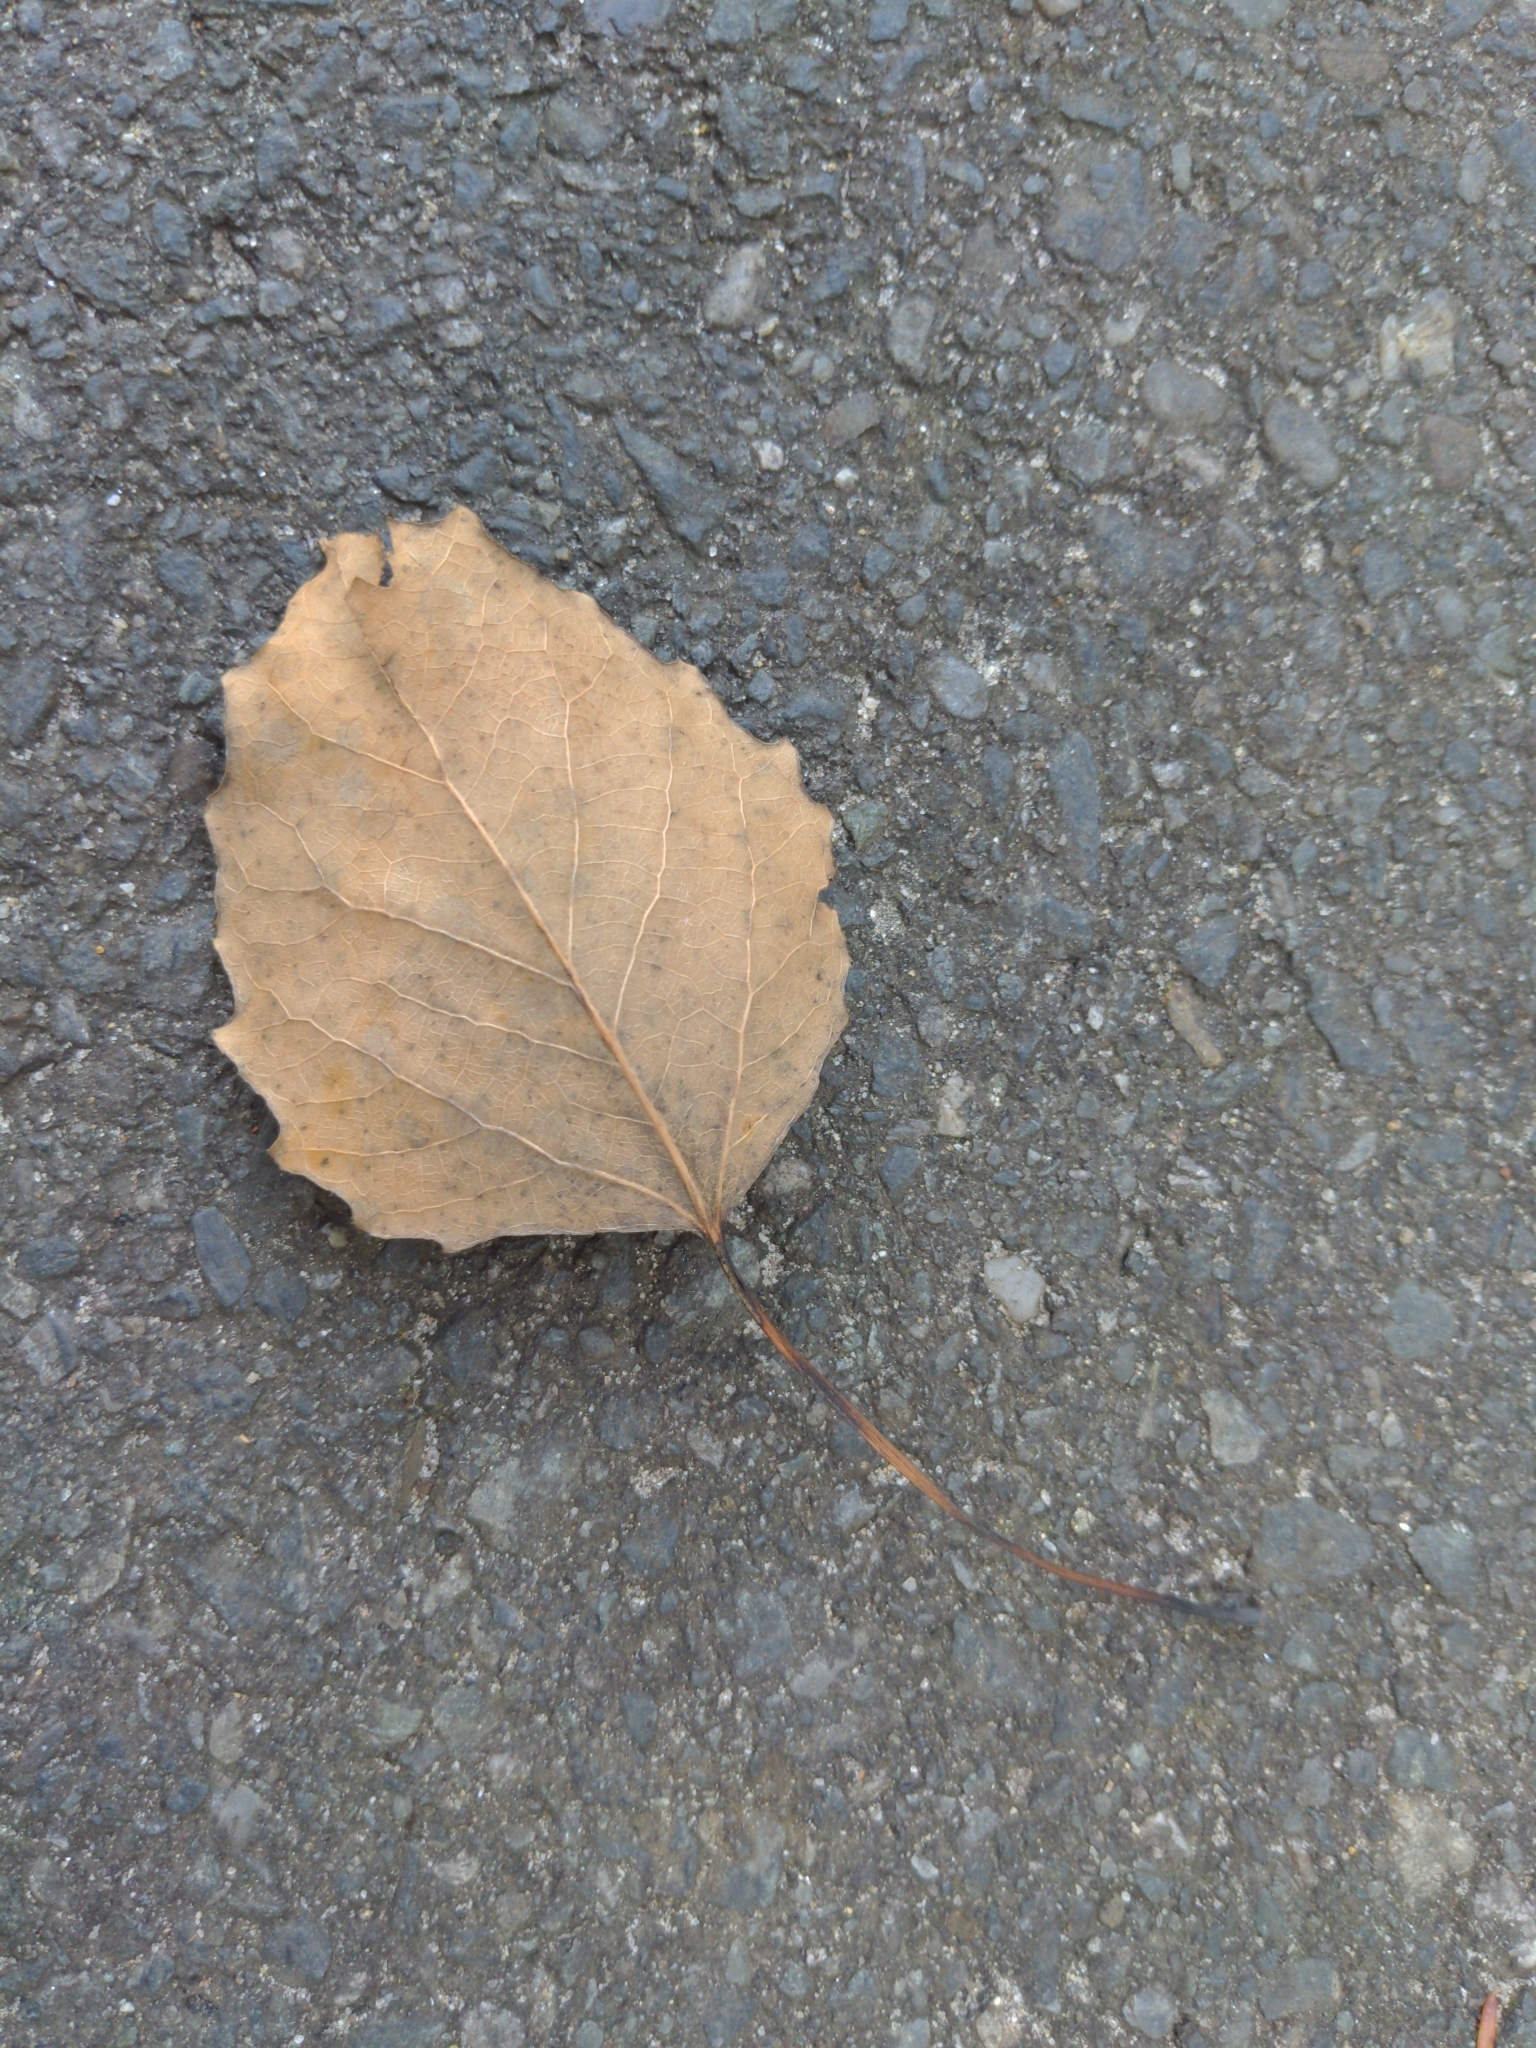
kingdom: Plantae
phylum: Tracheophyta
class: Magnoliopsida
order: Malpighiales
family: Salicaceae
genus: Populus
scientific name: Populus grandidentata
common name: Bigtooth aspen
